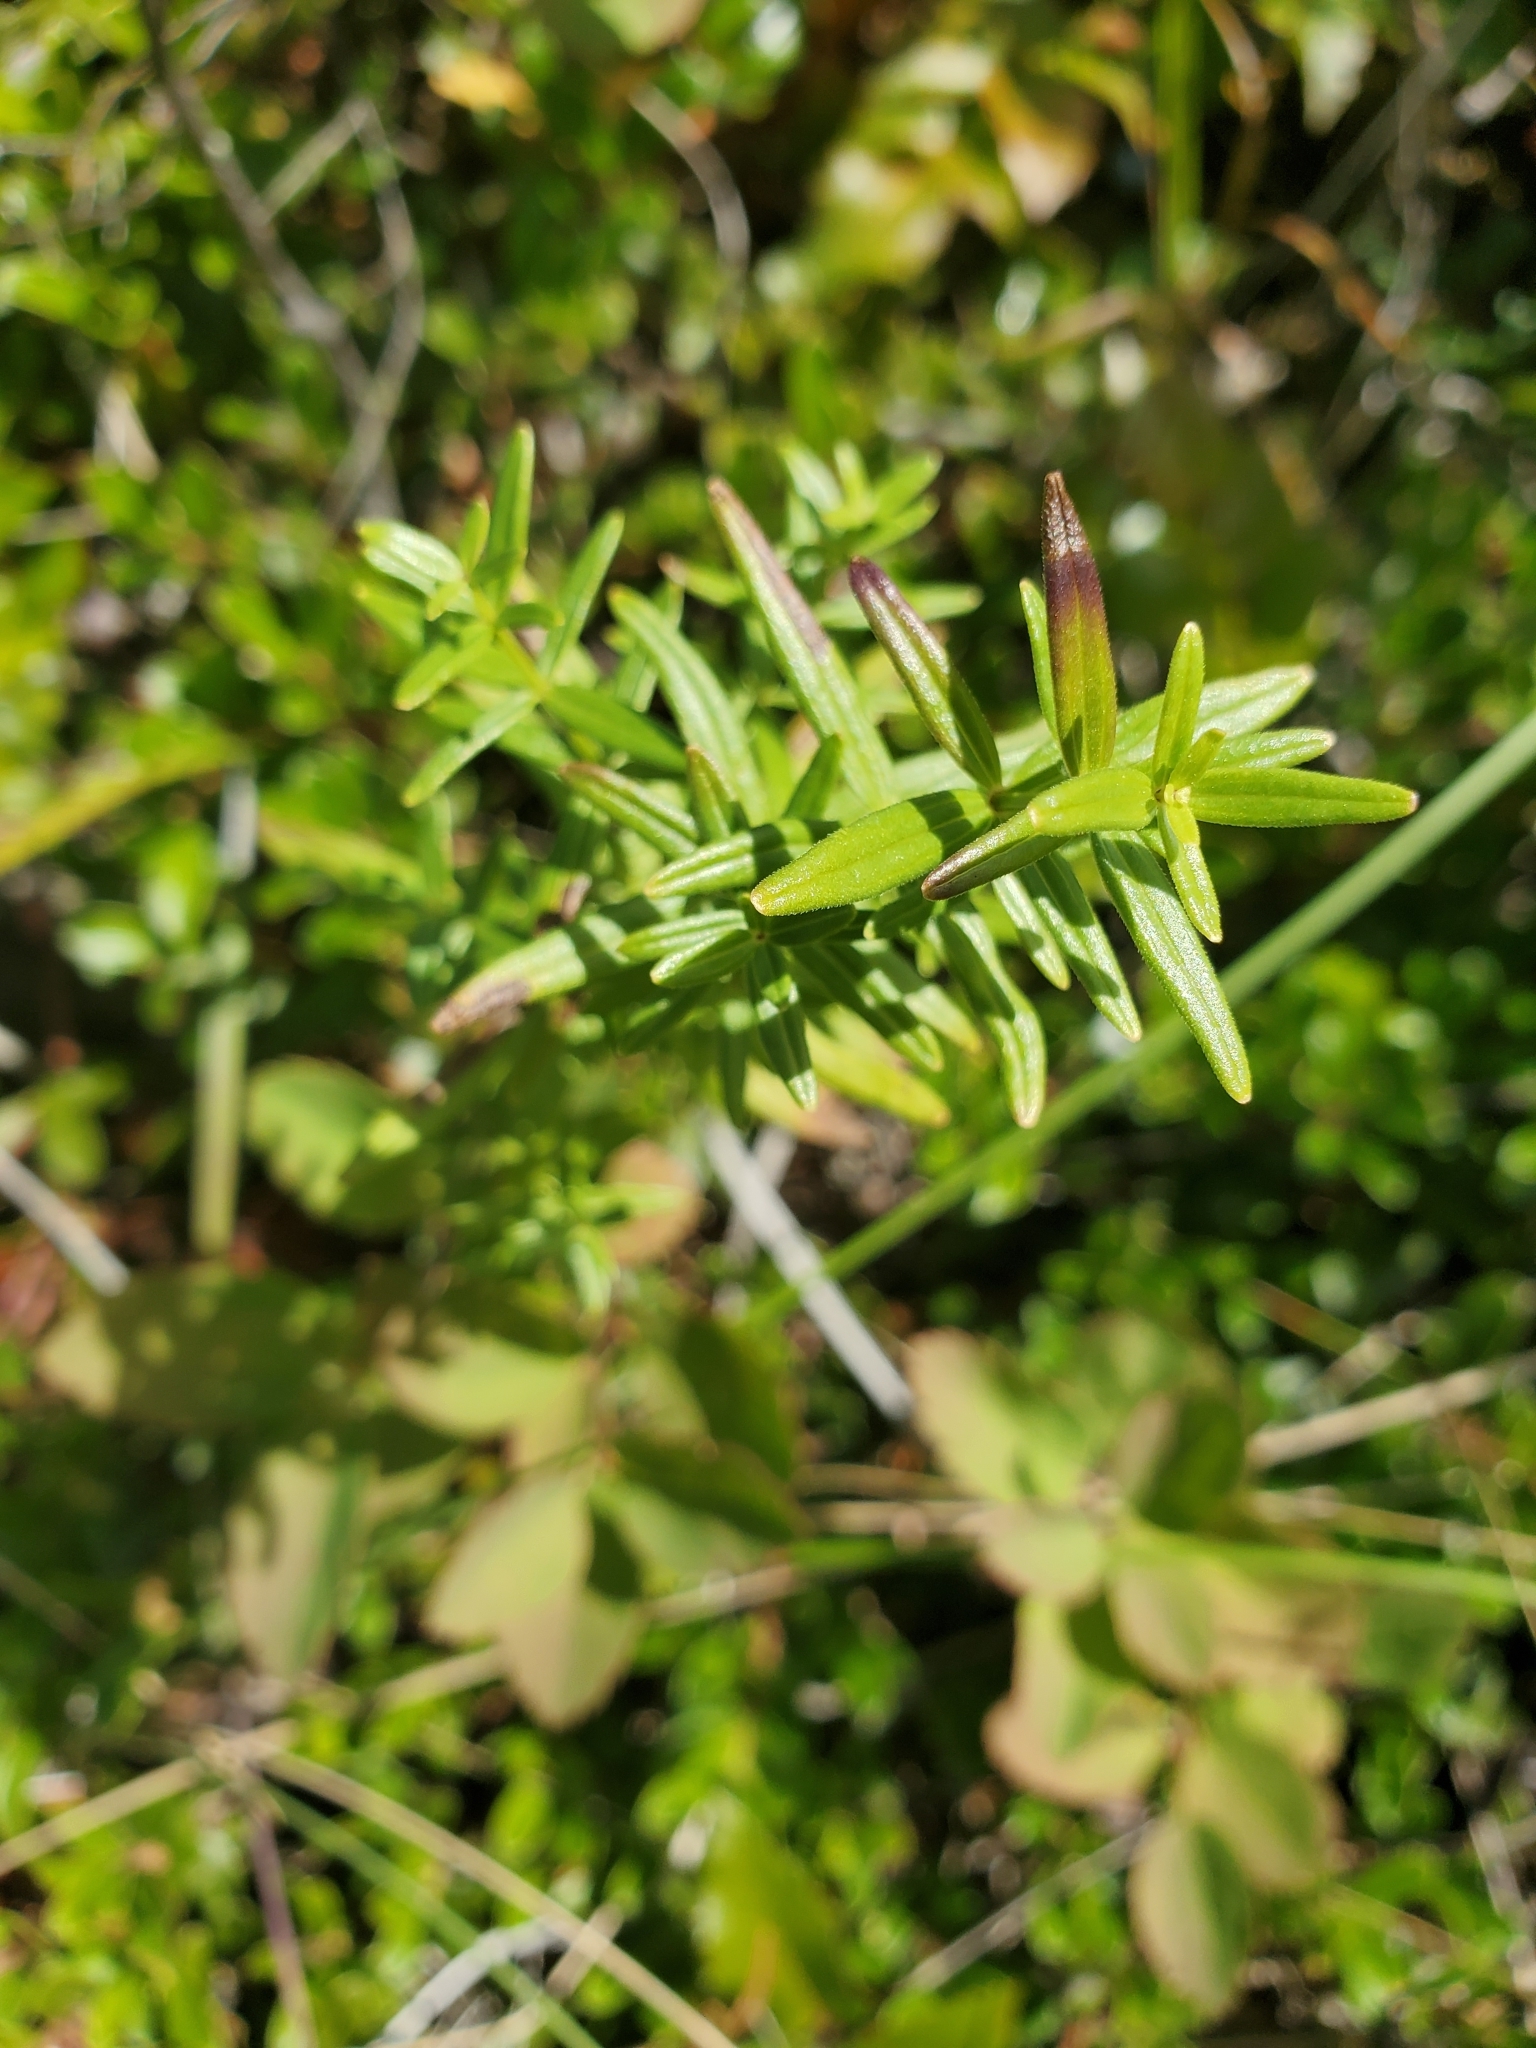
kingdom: Plantae
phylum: Tracheophyta
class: Magnoliopsida
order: Gentianales
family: Rubiaceae
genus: Galium
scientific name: Galium boreale
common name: Northern bedstraw
